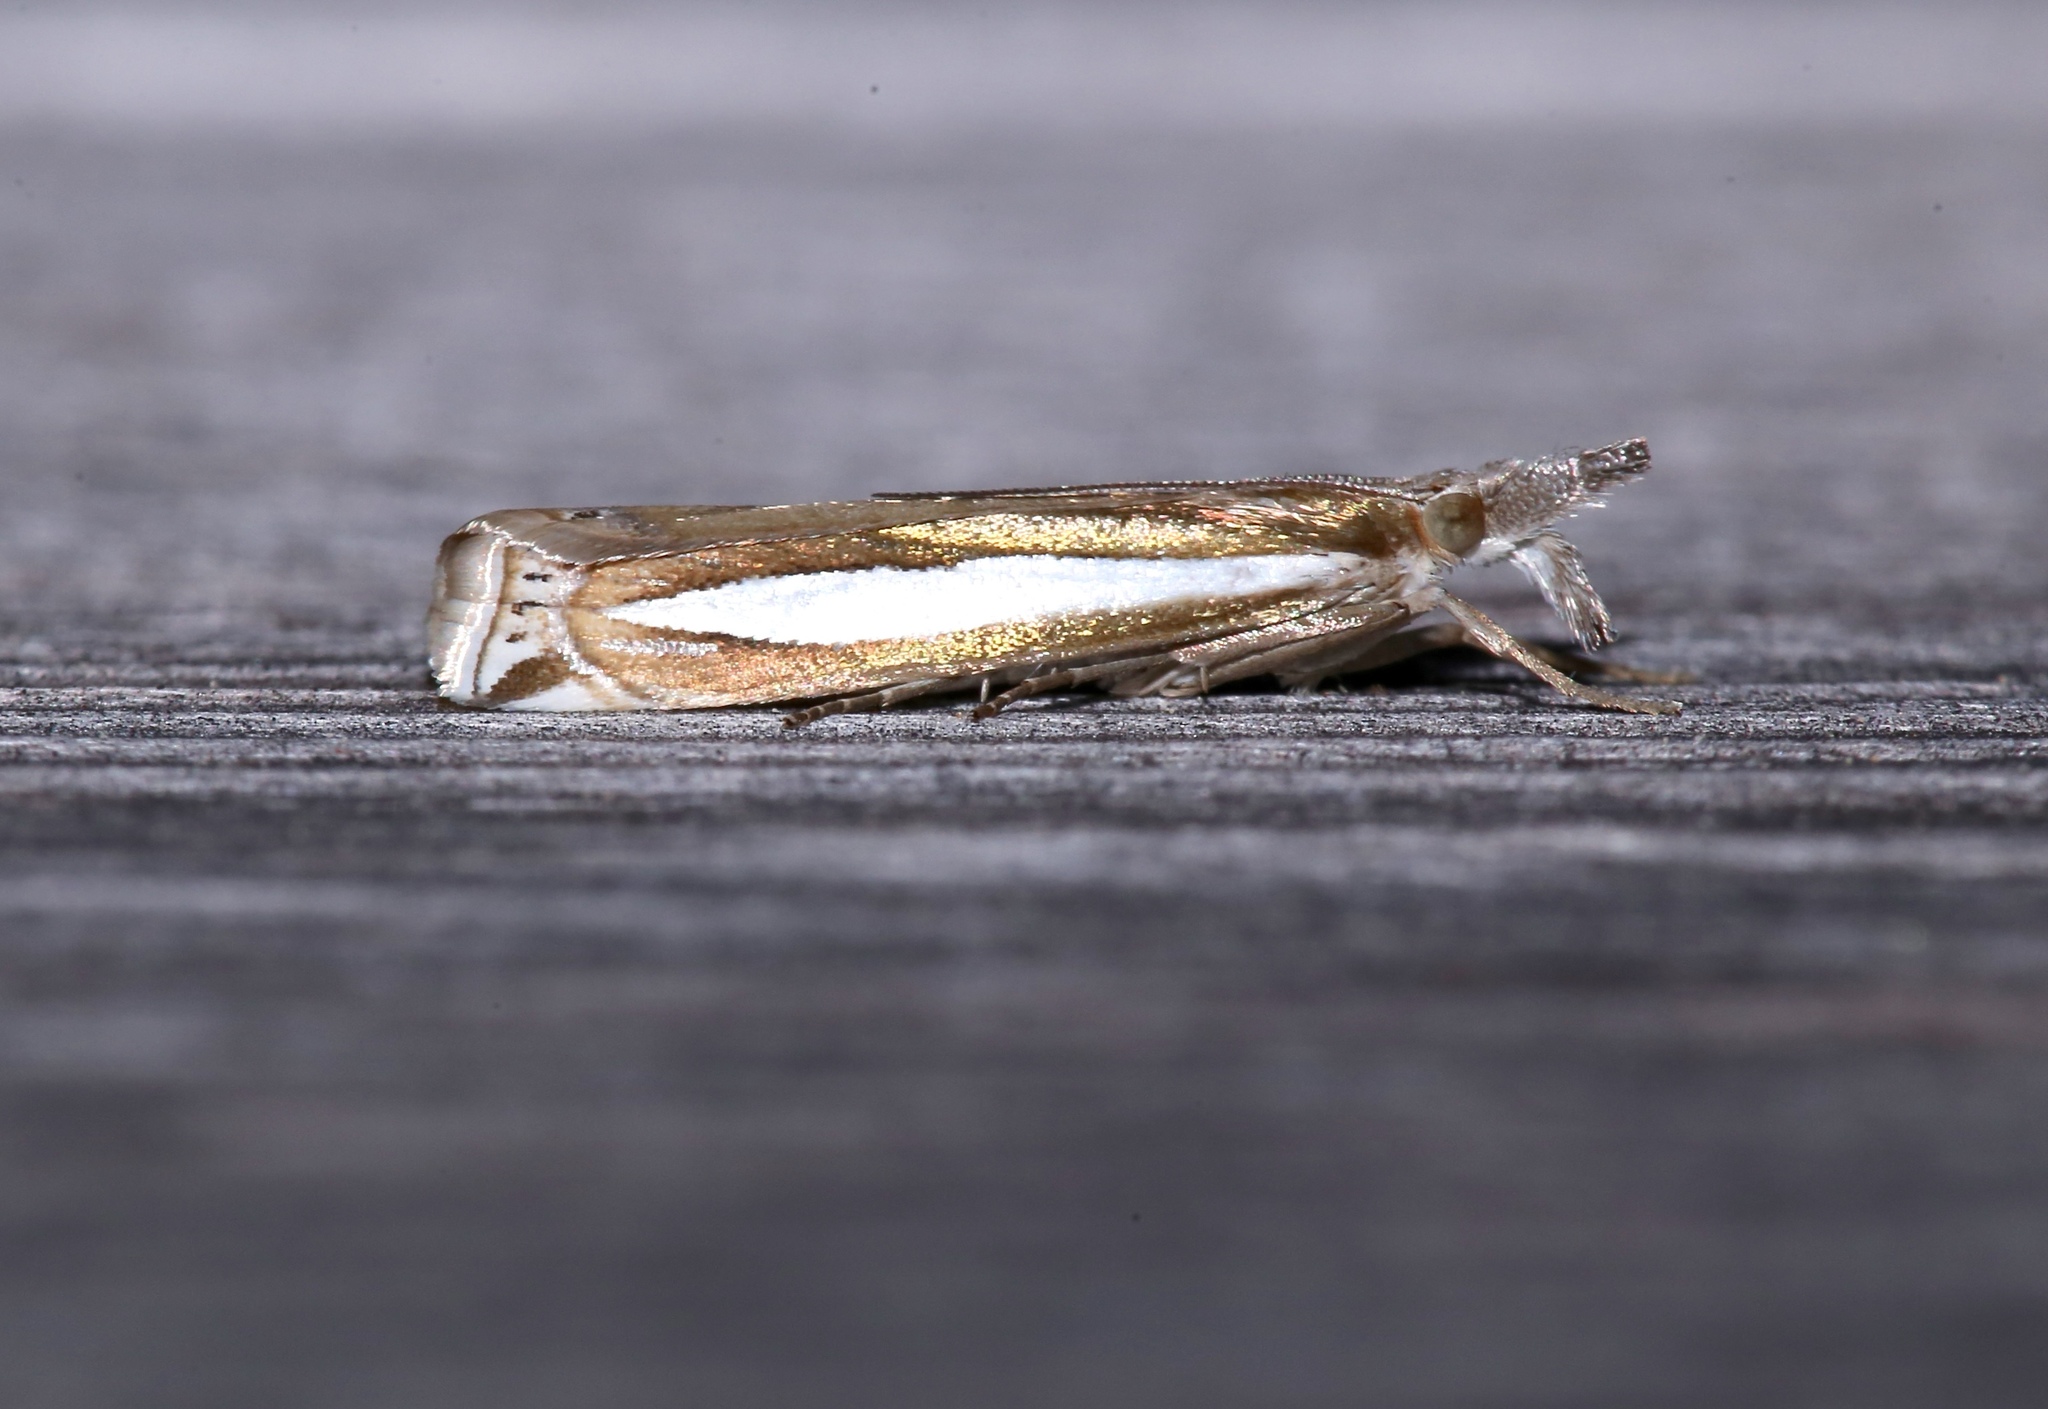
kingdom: Animalia
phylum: Arthropoda
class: Insecta
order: Lepidoptera
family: Crambidae
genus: Crambus
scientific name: Crambus praefectellus
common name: Common grass-veneer
